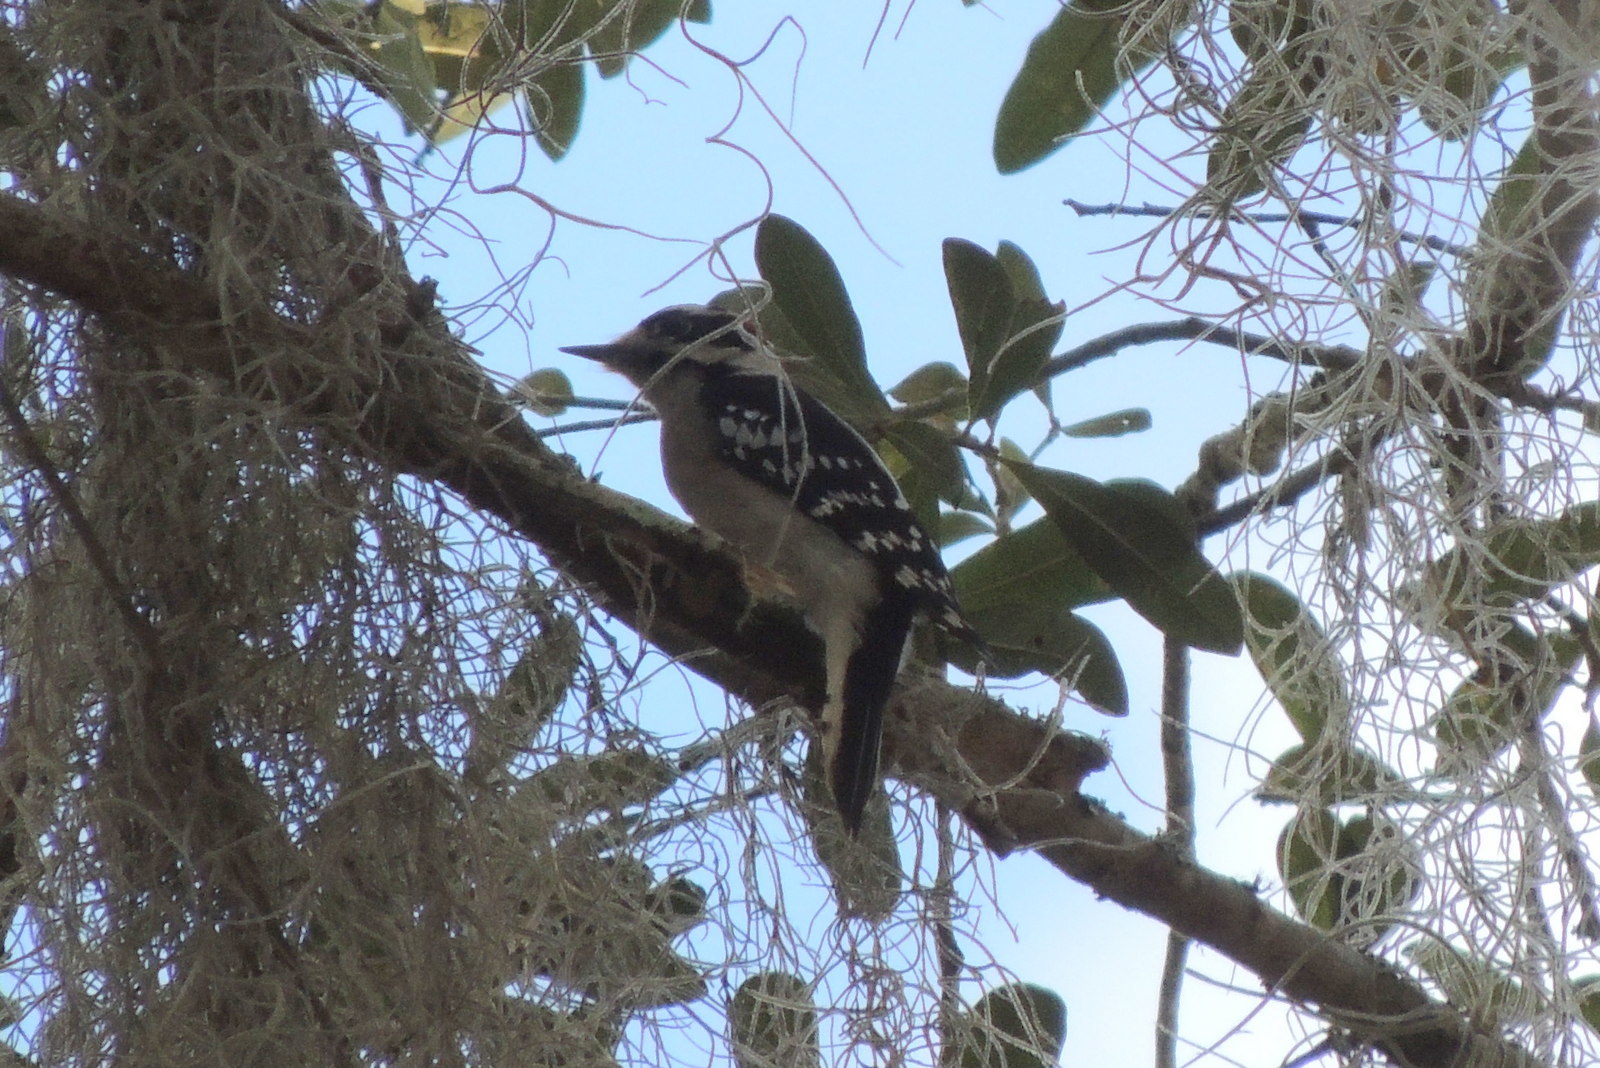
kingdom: Animalia
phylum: Chordata
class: Aves
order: Piciformes
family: Picidae
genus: Dryobates
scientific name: Dryobates pubescens
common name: Downy woodpecker
